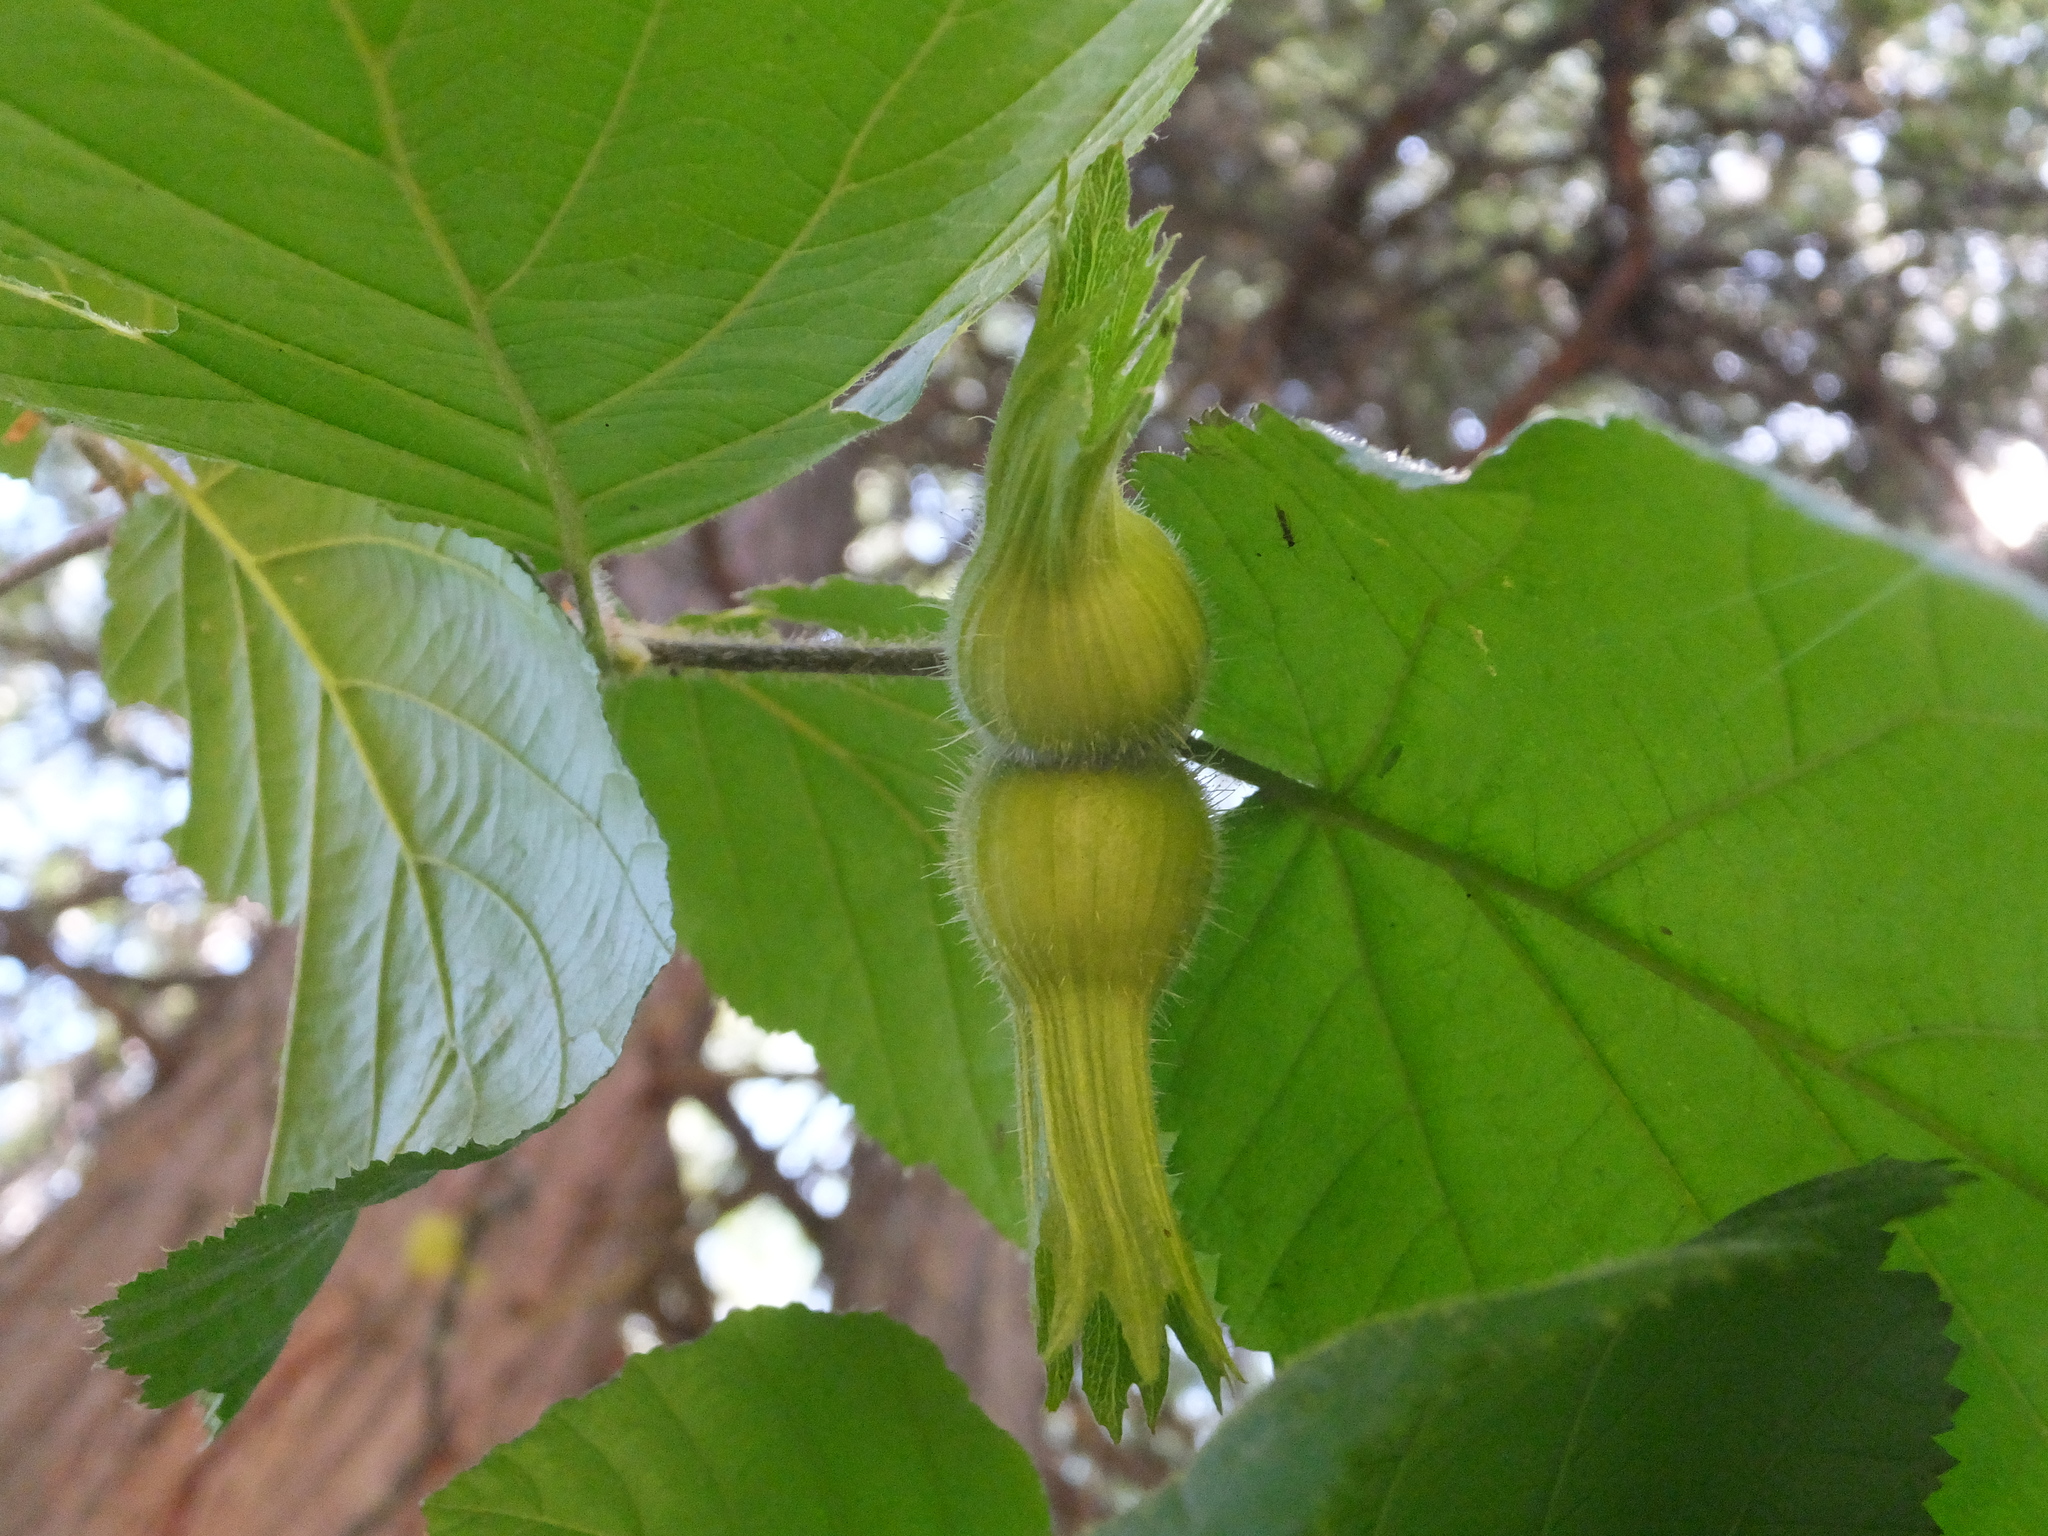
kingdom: Plantae
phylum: Tracheophyta
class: Magnoliopsida
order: Fagales
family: Betulaceae
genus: Corylus
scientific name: Corylus cornuta
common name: Beaked hazel
